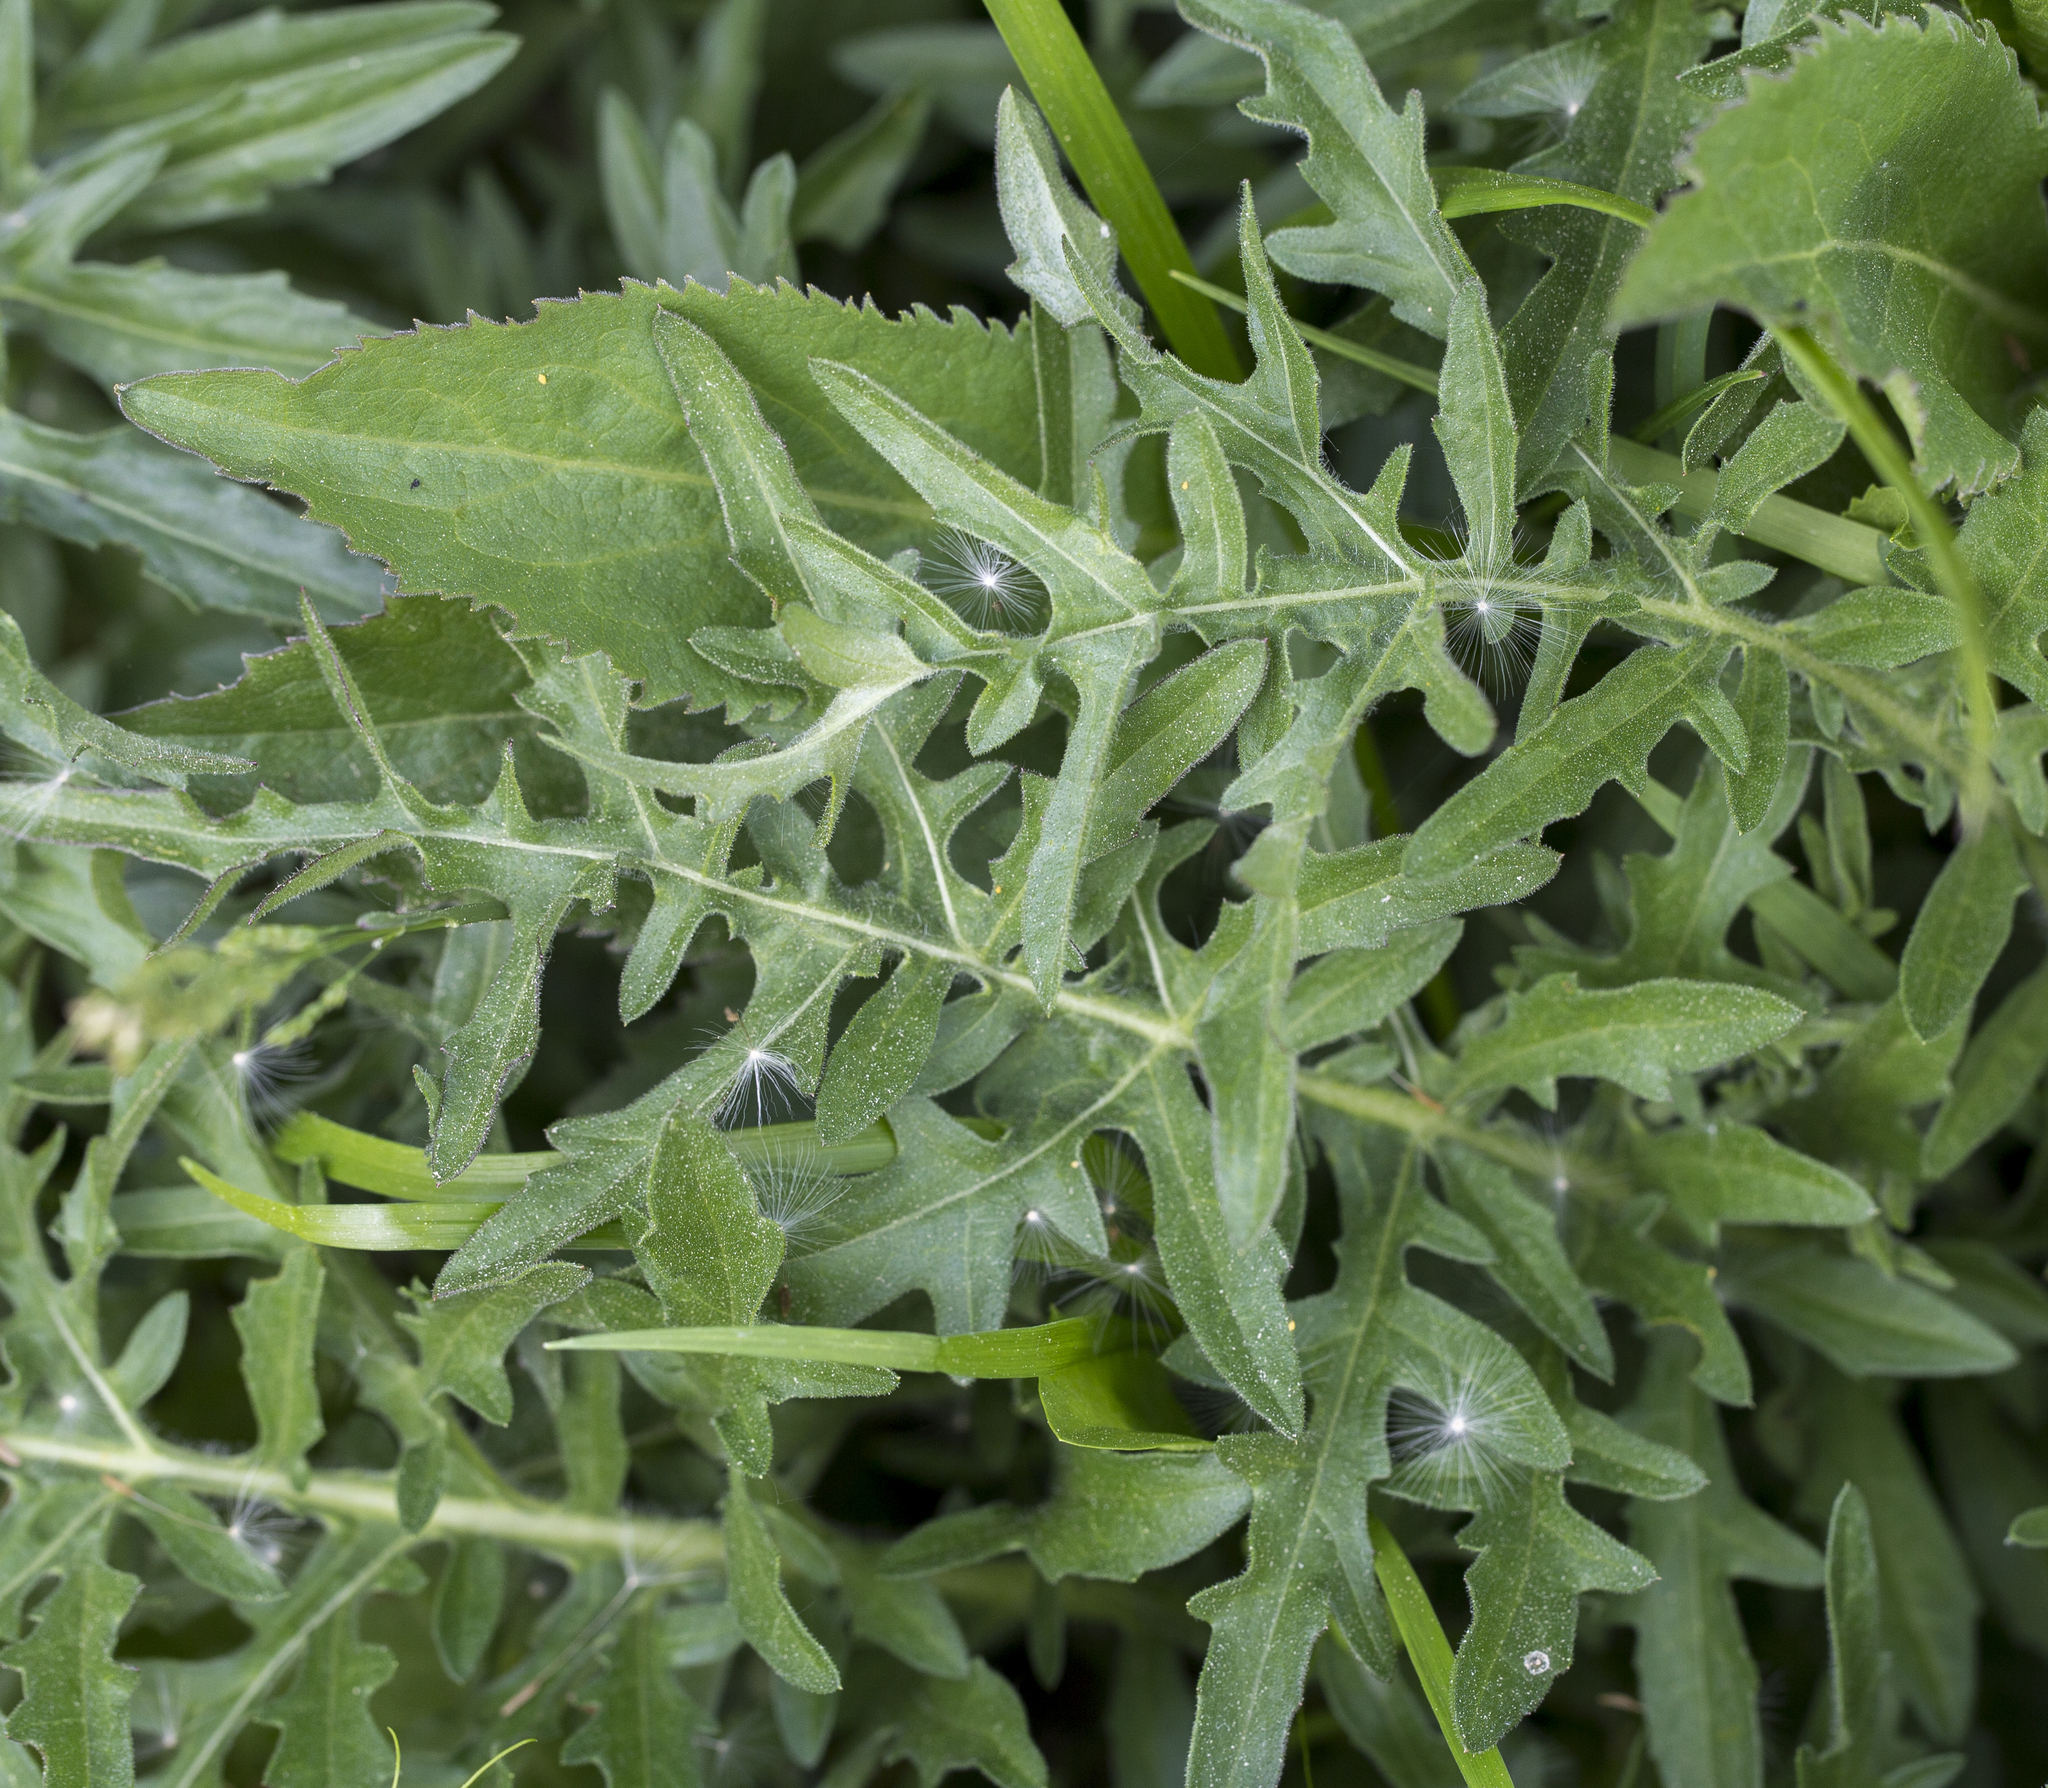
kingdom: Plantae
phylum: Tracheophyta
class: Magnoliopsida
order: Asterales
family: Asteraceae
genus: Centaurea
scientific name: Centaurea scabiosa
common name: Greater knapweed
